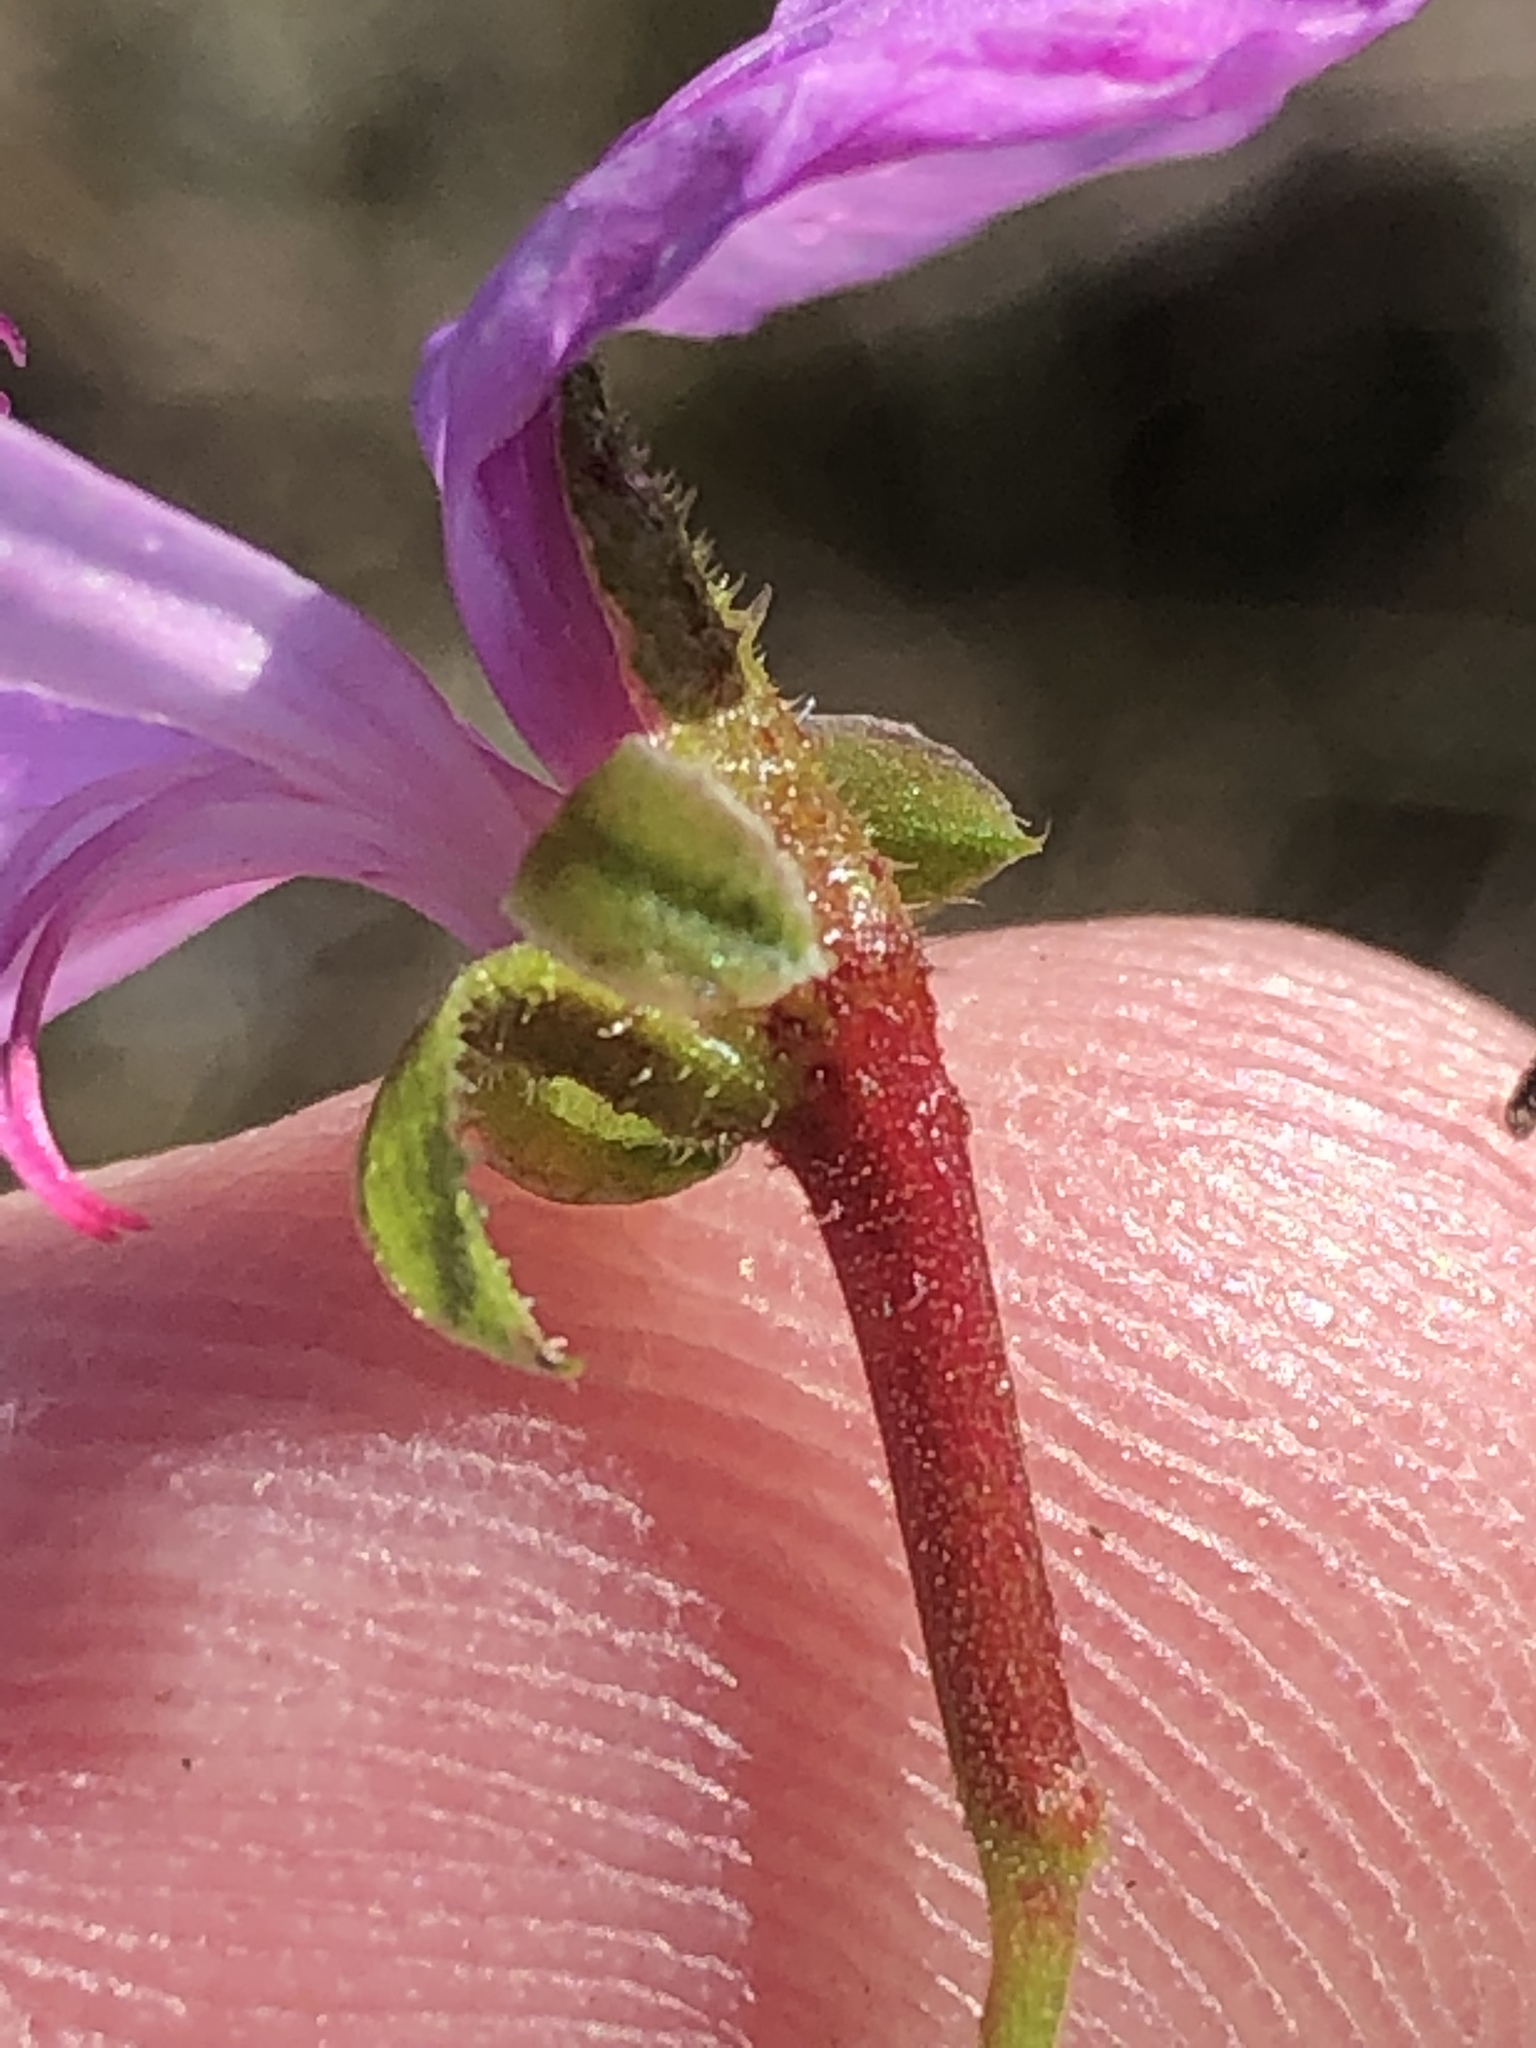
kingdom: Plantae
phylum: Tracheophyta
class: Magnoliopsida
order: Geraniales
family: Geraniaceae
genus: Pelargonium
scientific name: Pelargonium crispum
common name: Crisped-leaf pelargonium
